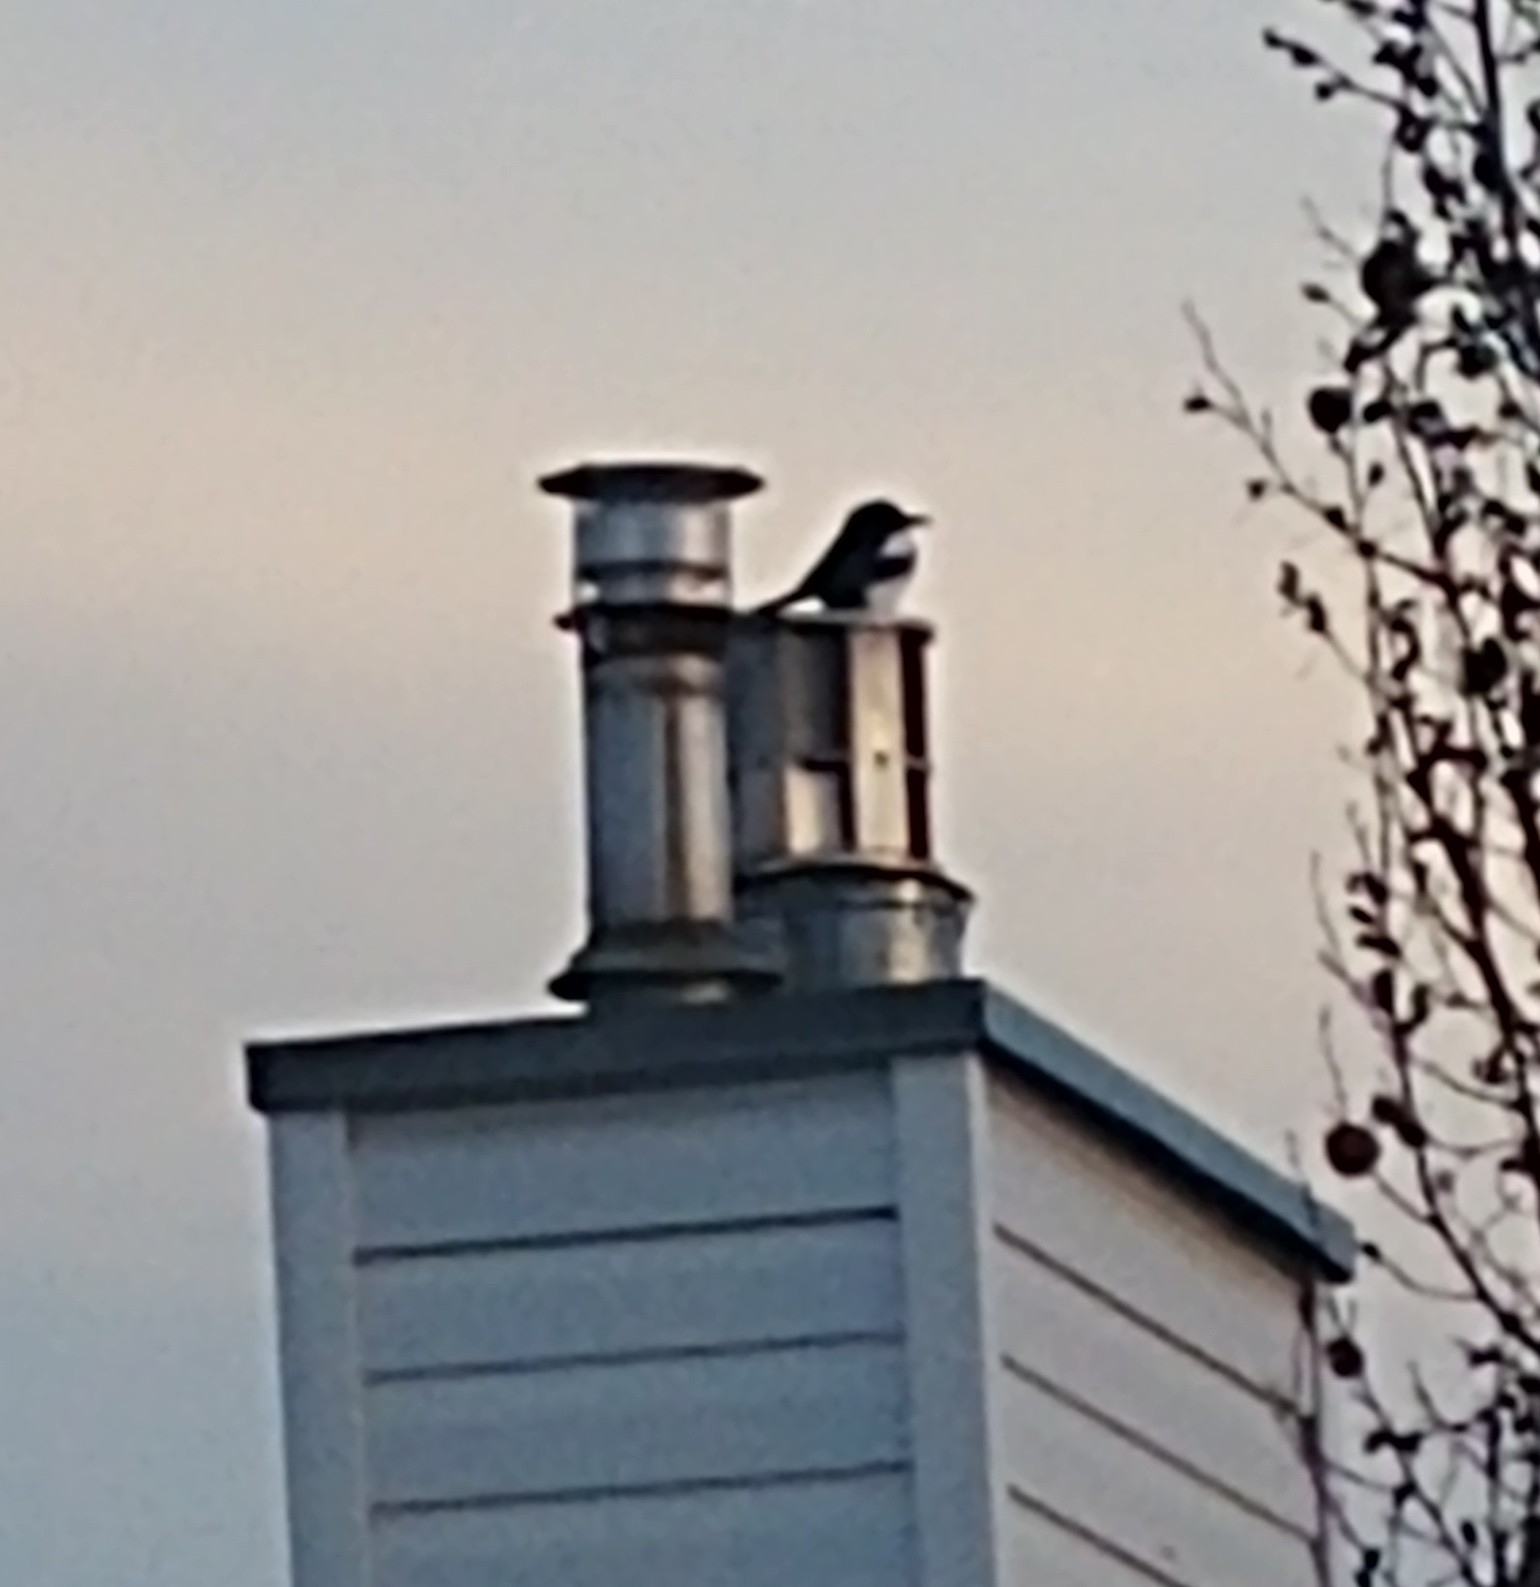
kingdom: Animalia
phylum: Chordata
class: Aves
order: Passeriformes
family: Corvidae
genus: Pica
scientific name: Pica hudsonia
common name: Black-billed magpie
